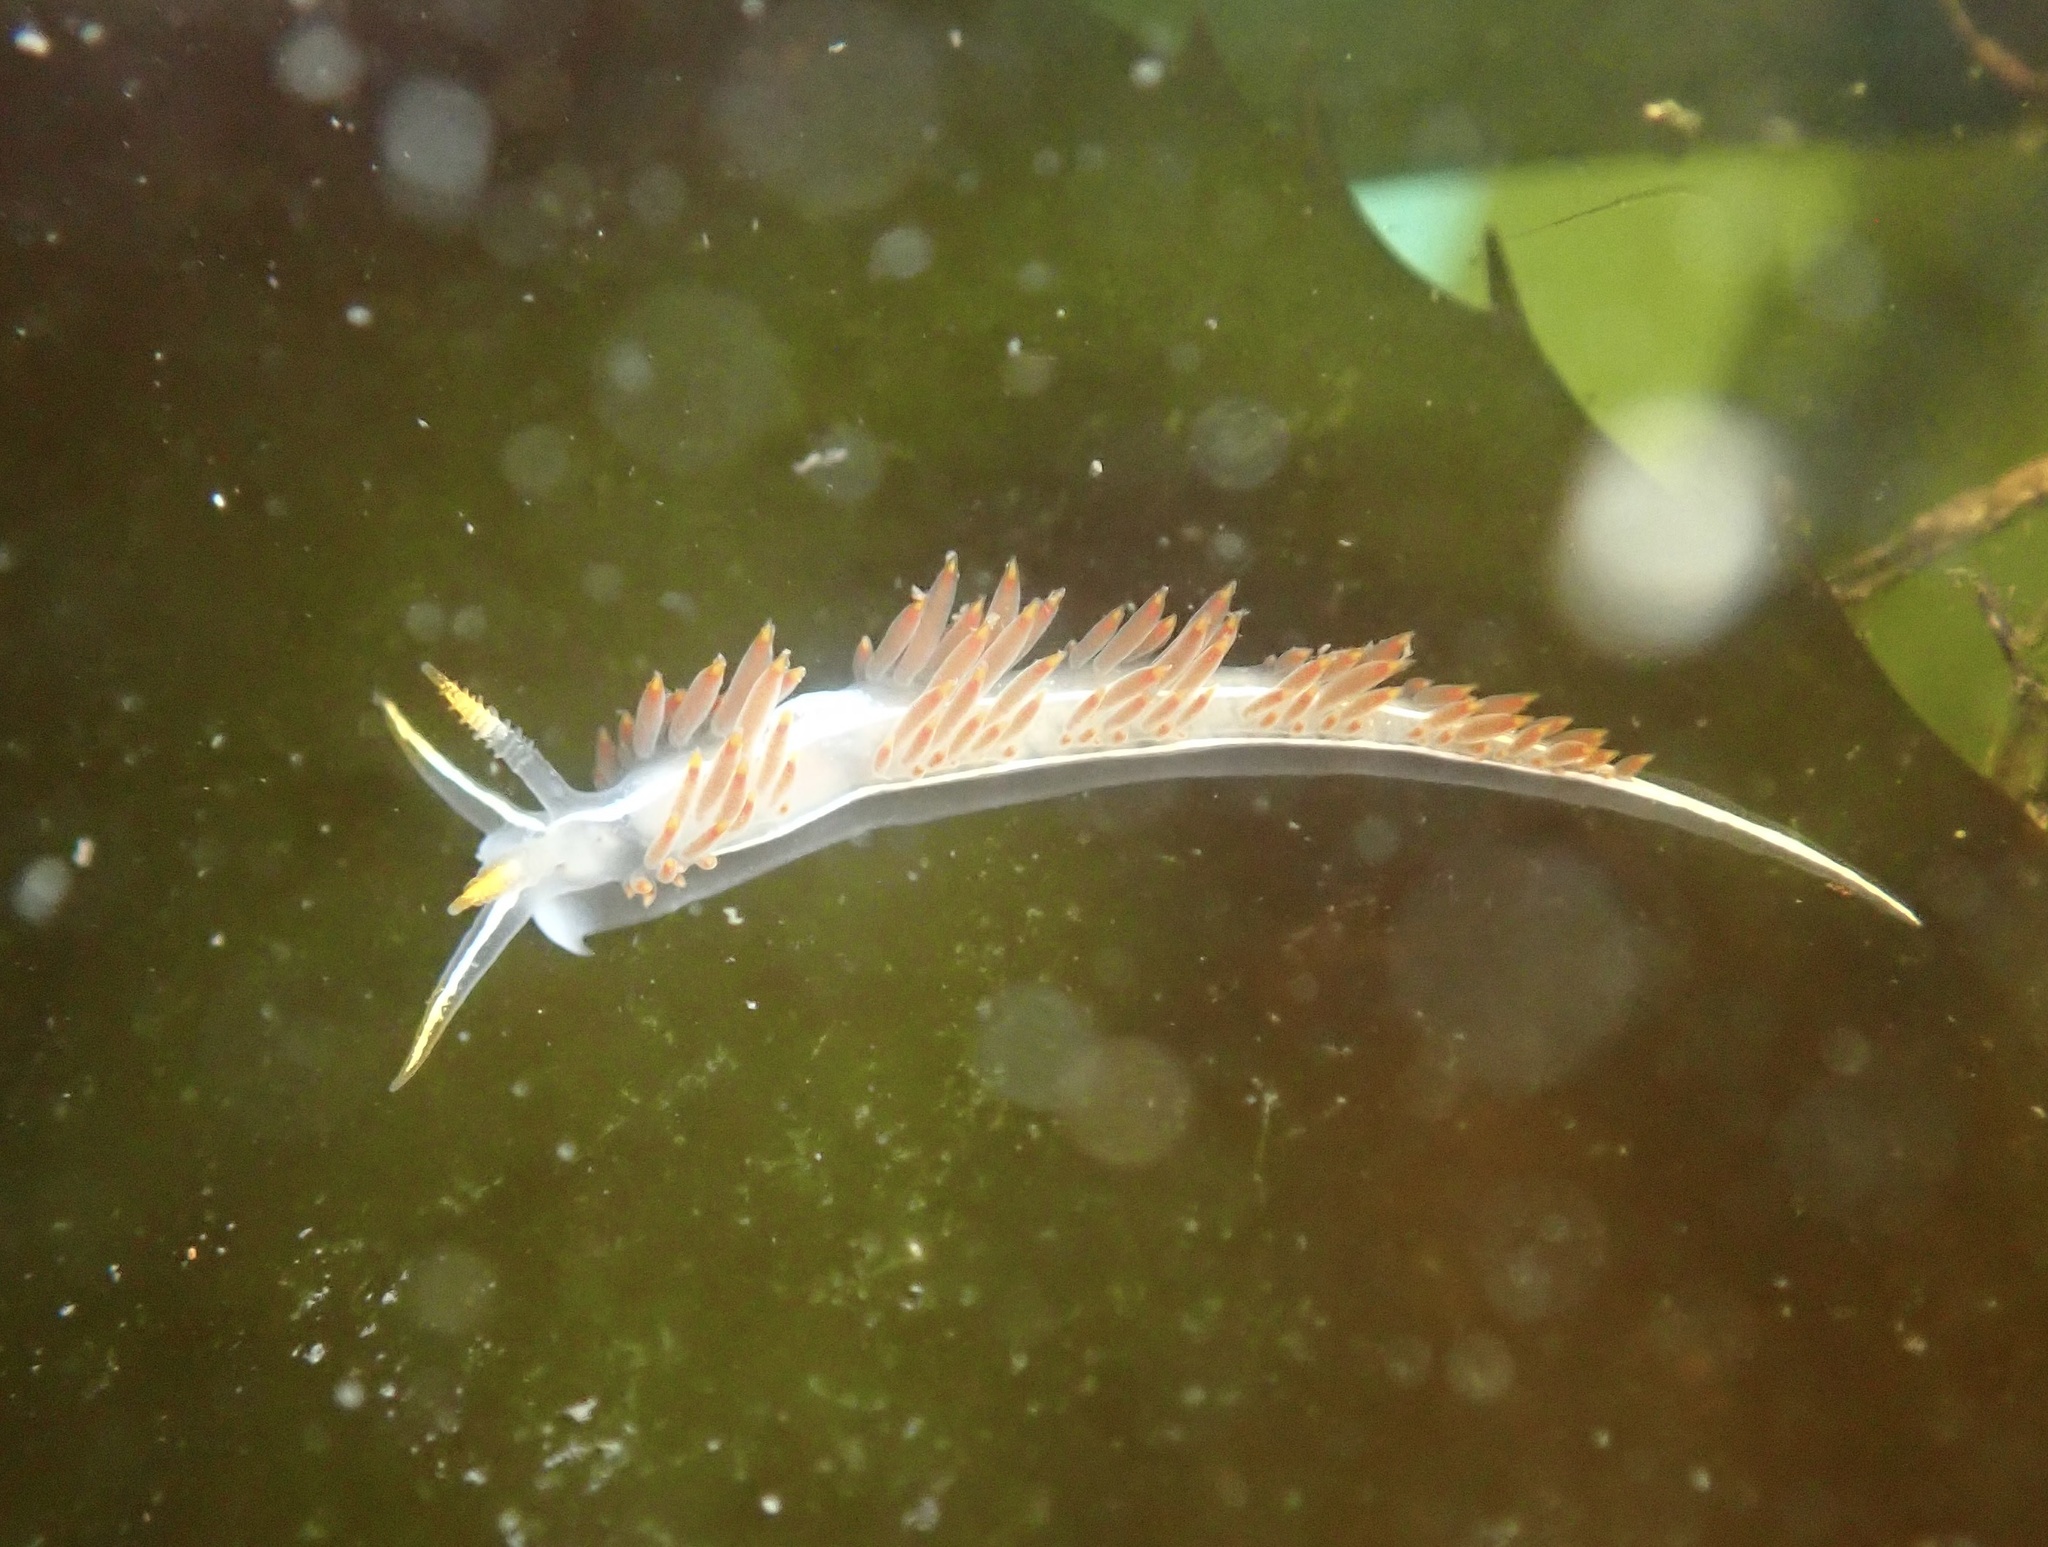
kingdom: Animalia
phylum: Mollusca
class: Gastropoda
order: Nudibranchia
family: Coryphellidae
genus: Coryphella
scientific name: Coryphella trilineata
